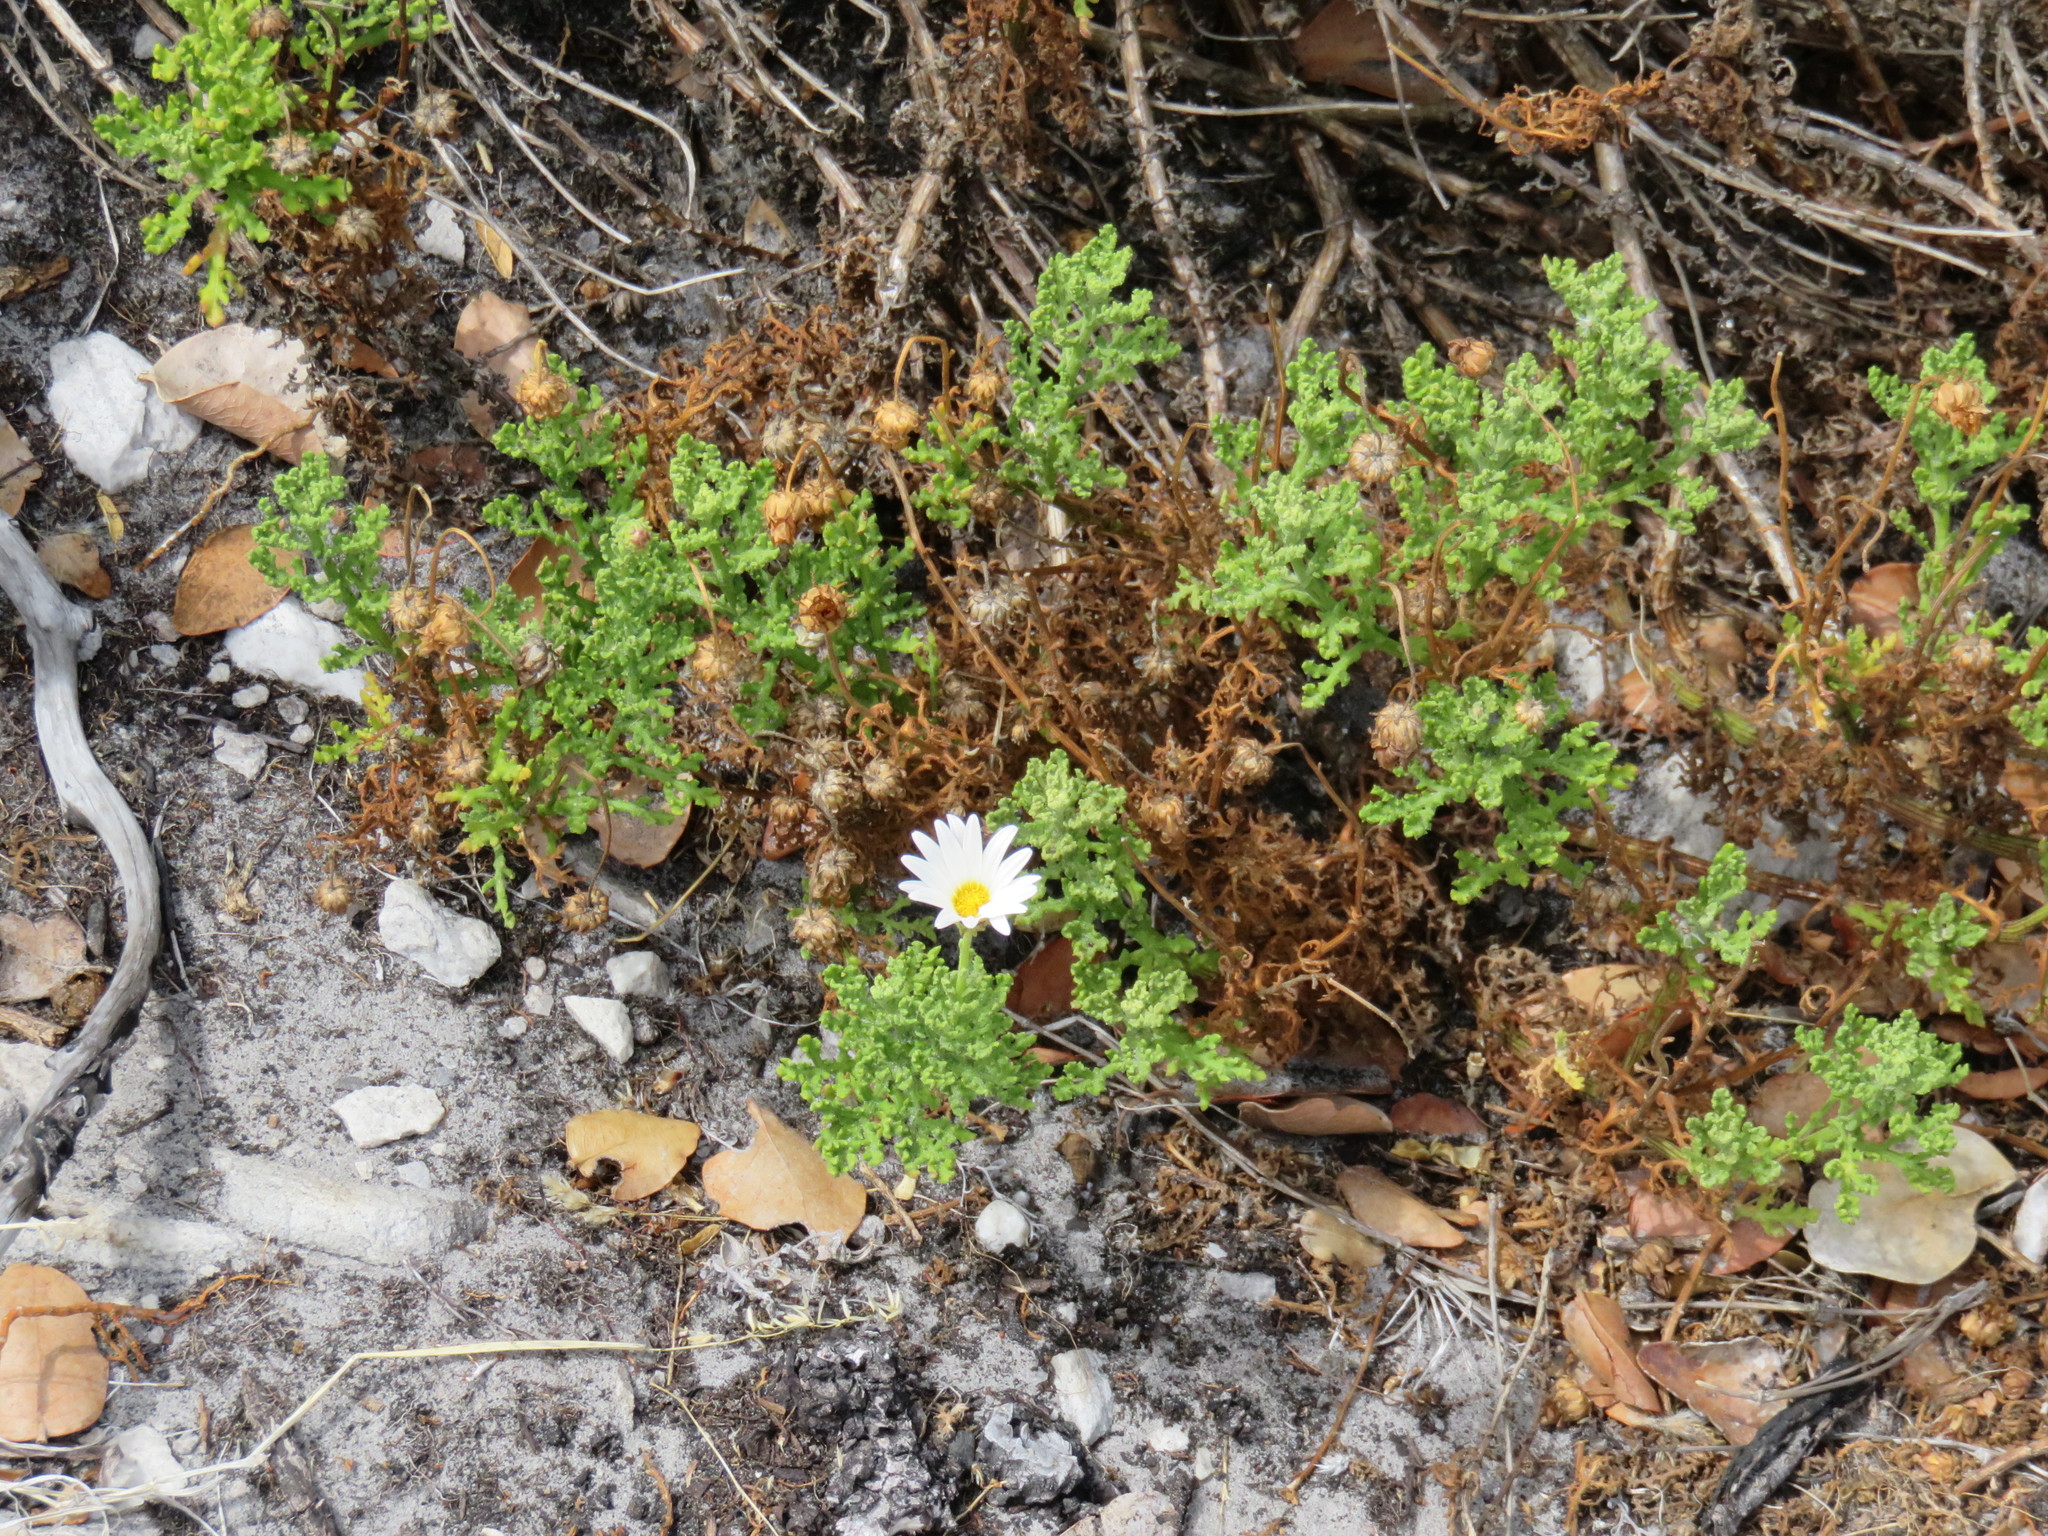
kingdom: Plantae
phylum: Tracheophyta
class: Magnoliopsida
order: Asterales
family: Asteraceae
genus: Arctotis
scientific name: Arctotis aspera
